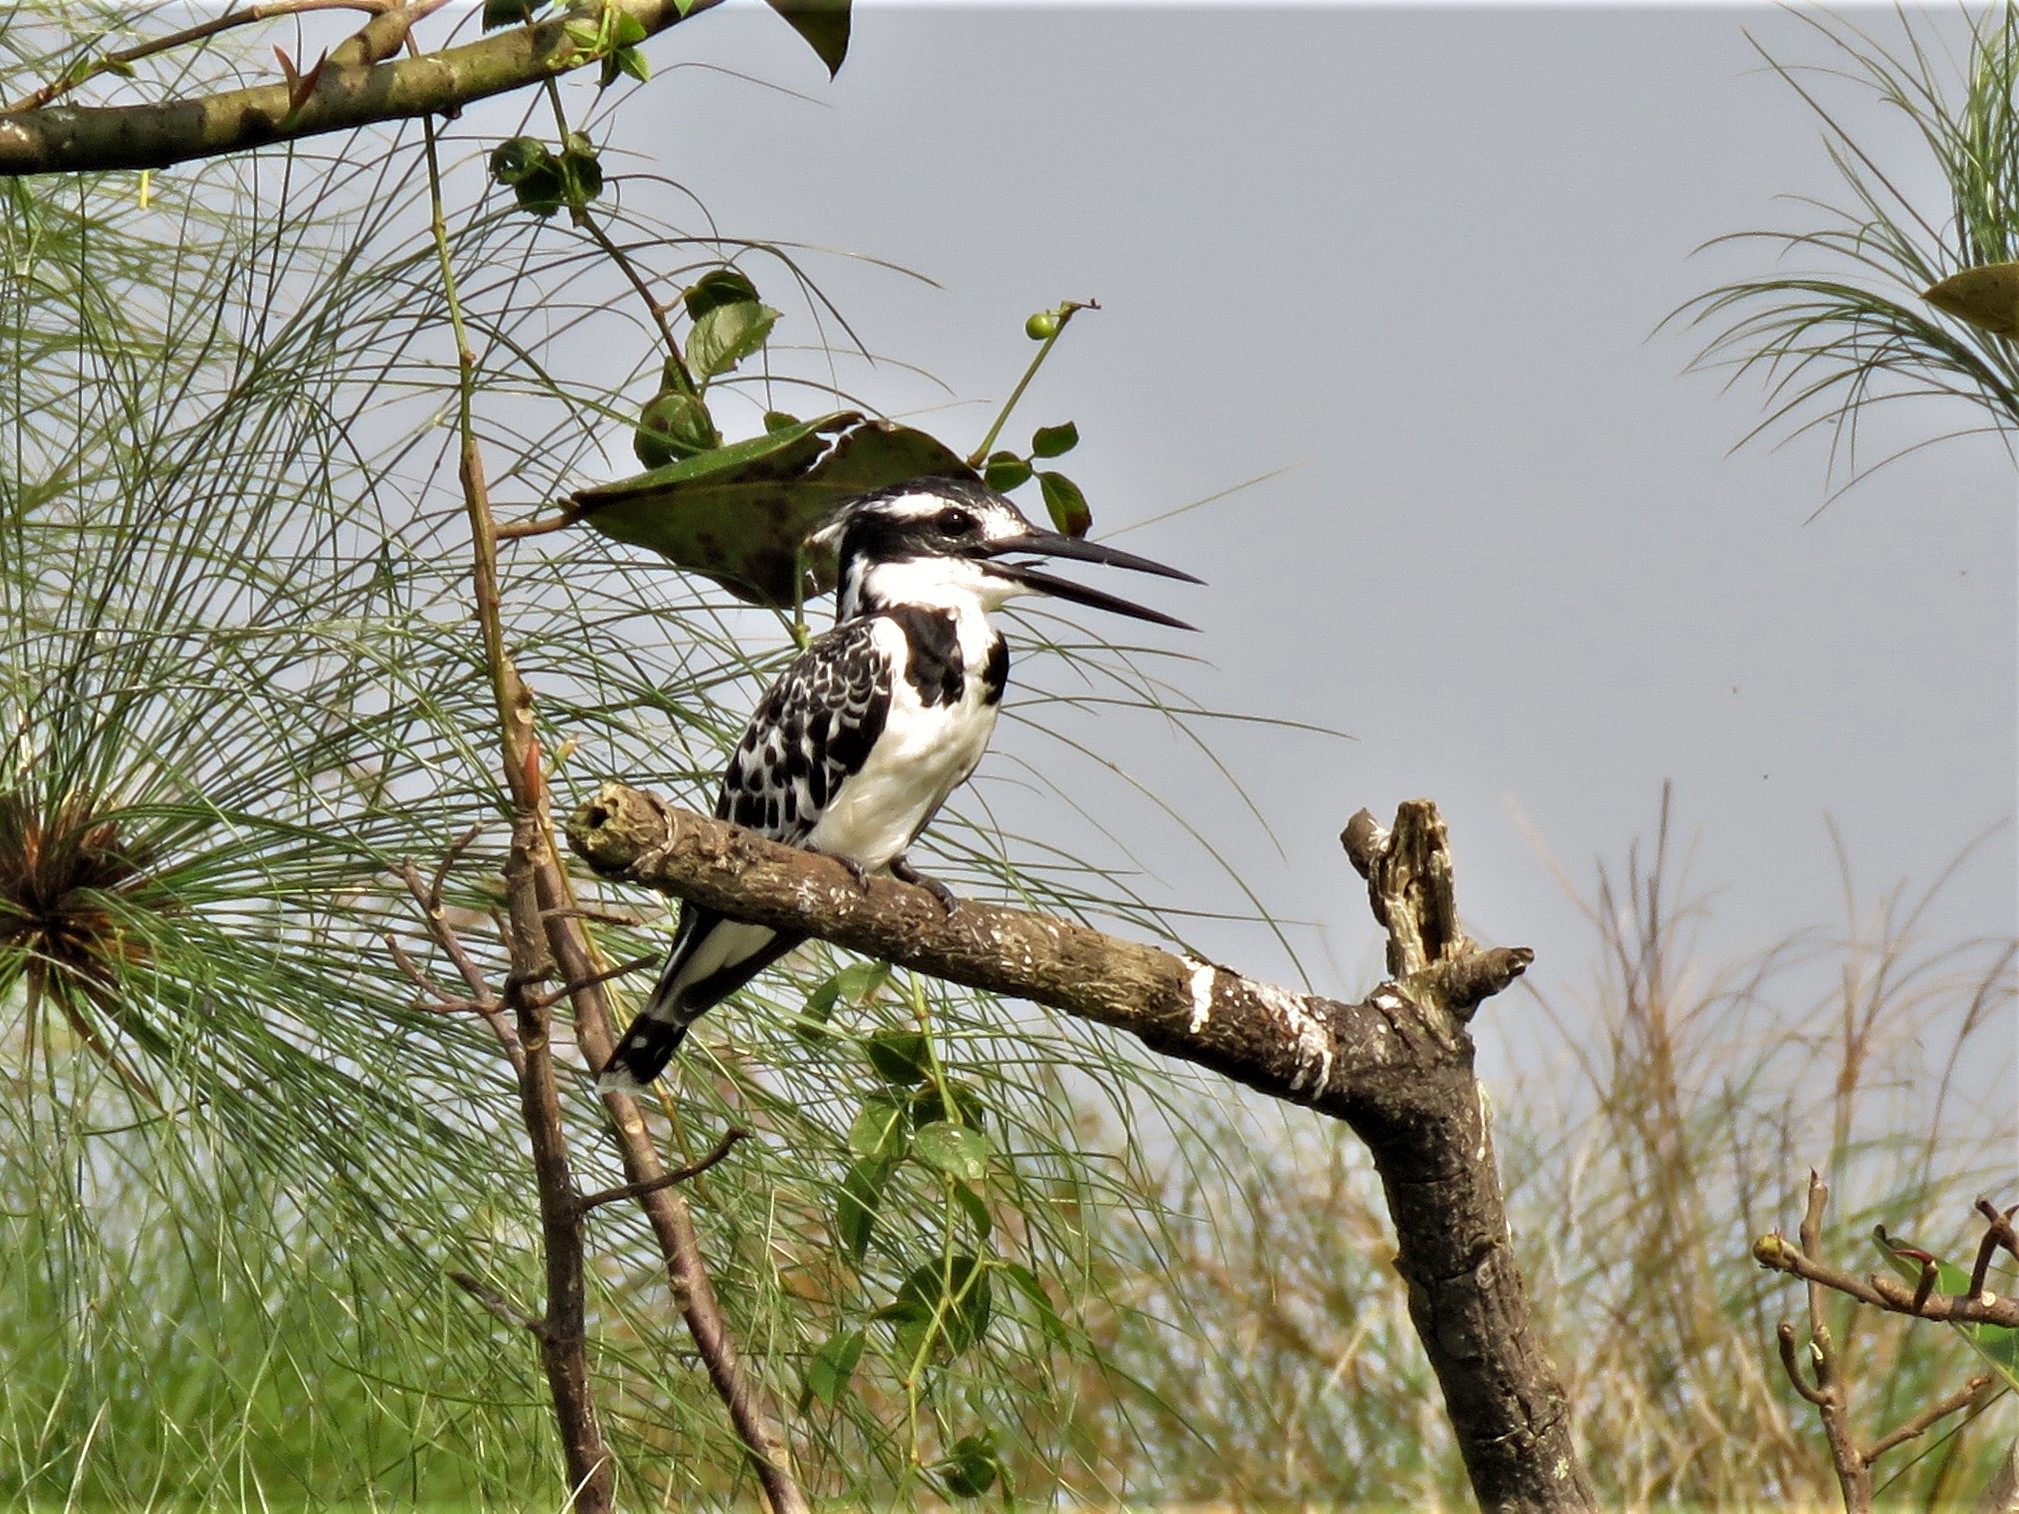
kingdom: Animalia
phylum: Chordata
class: Aves
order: Coraciiformes
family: Alcedinidae
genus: Ceryle
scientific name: Ceryle rudis
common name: Pied kingfisher
